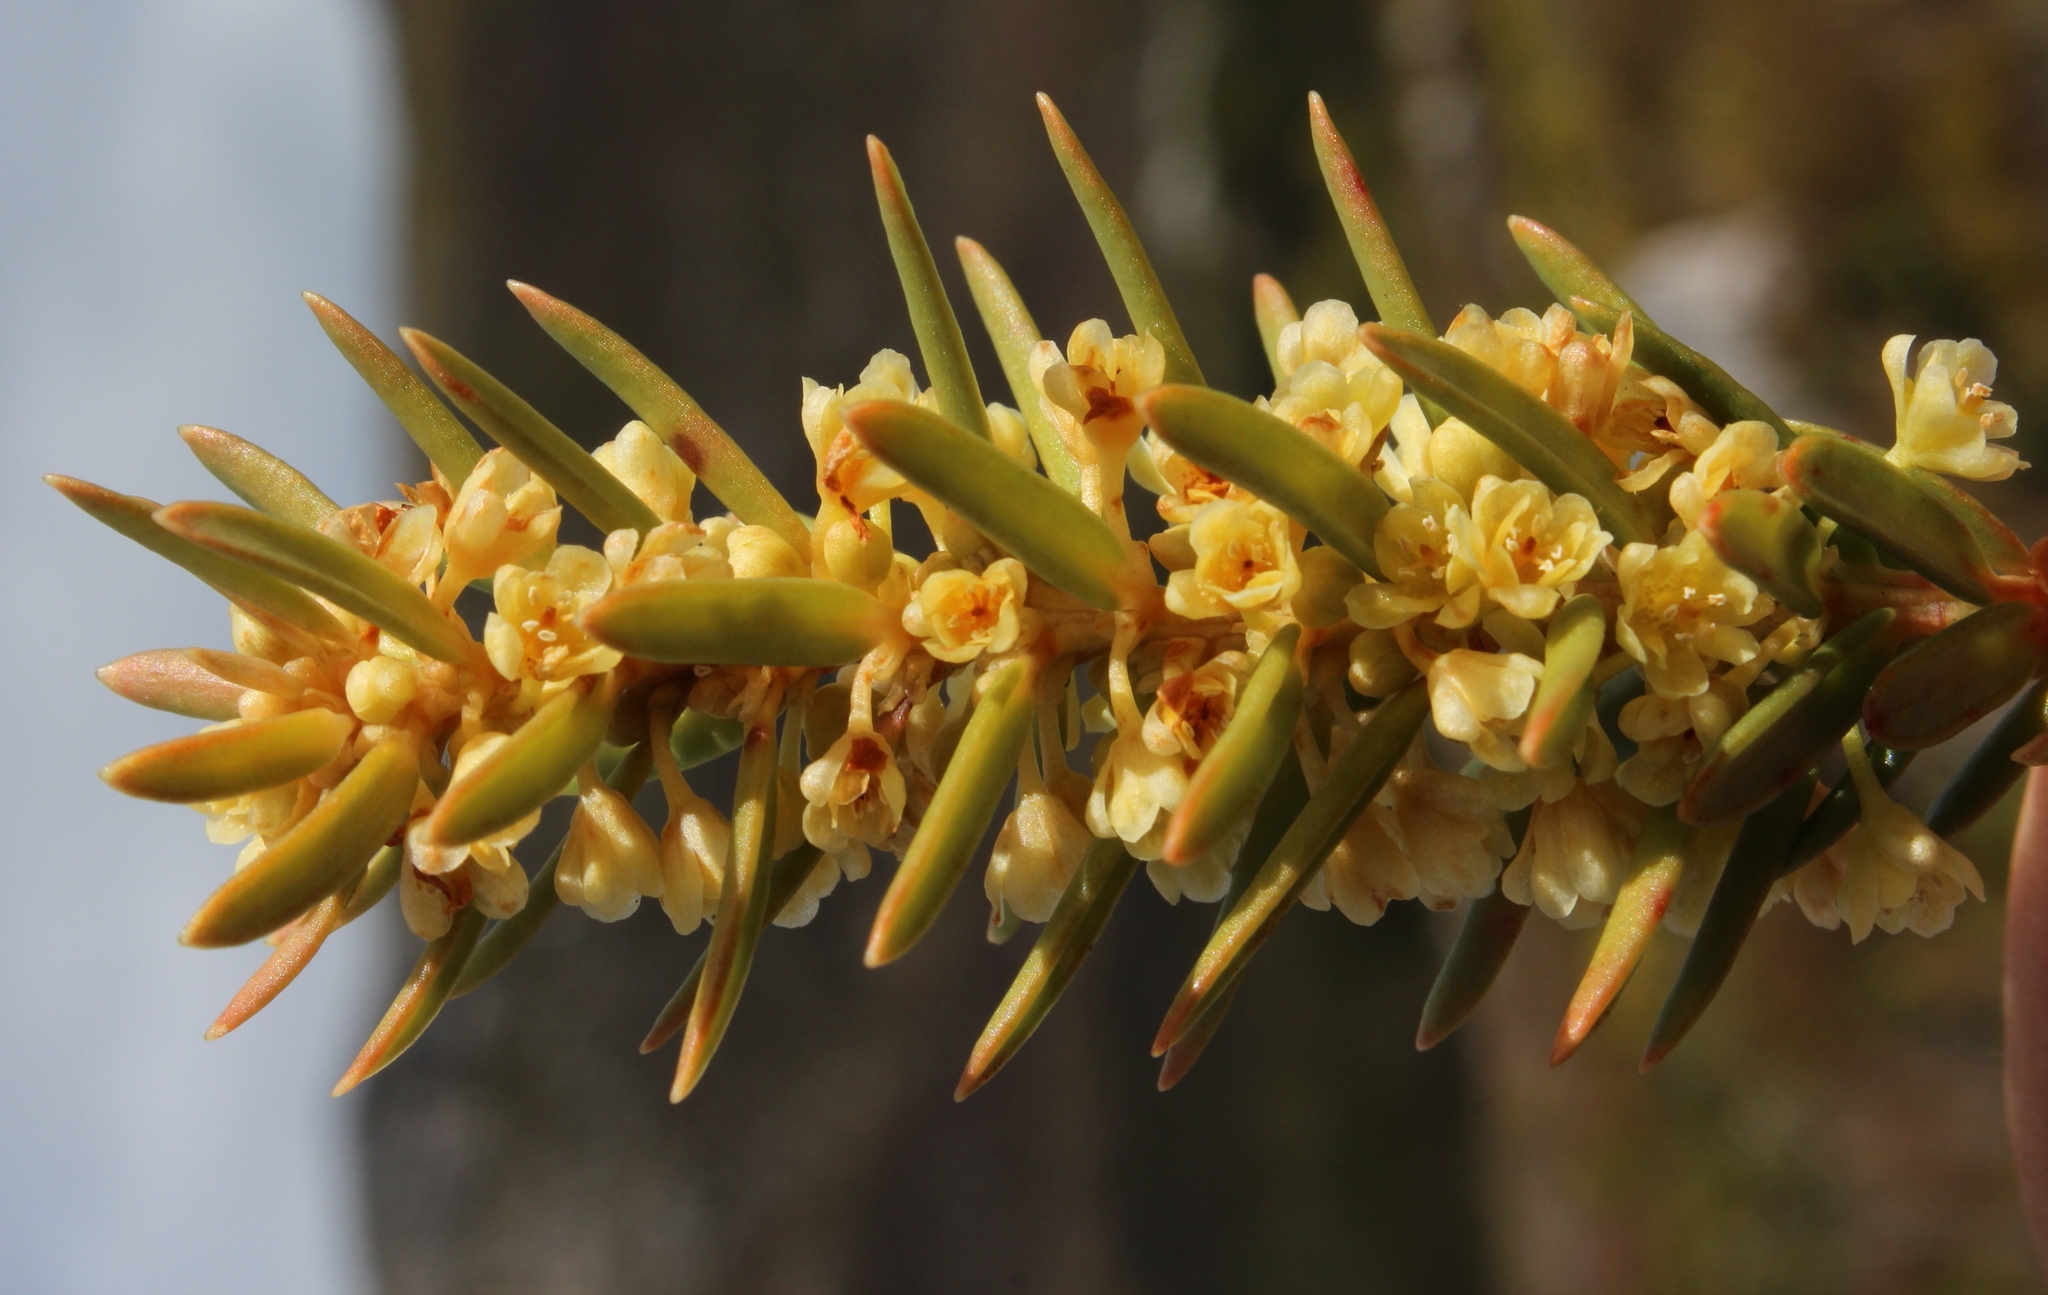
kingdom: Plantae
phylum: Tracheophyta
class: Magnoliopsida
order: Malpighiales
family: Peraceae
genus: Clutia
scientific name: Clutia polygonoides
